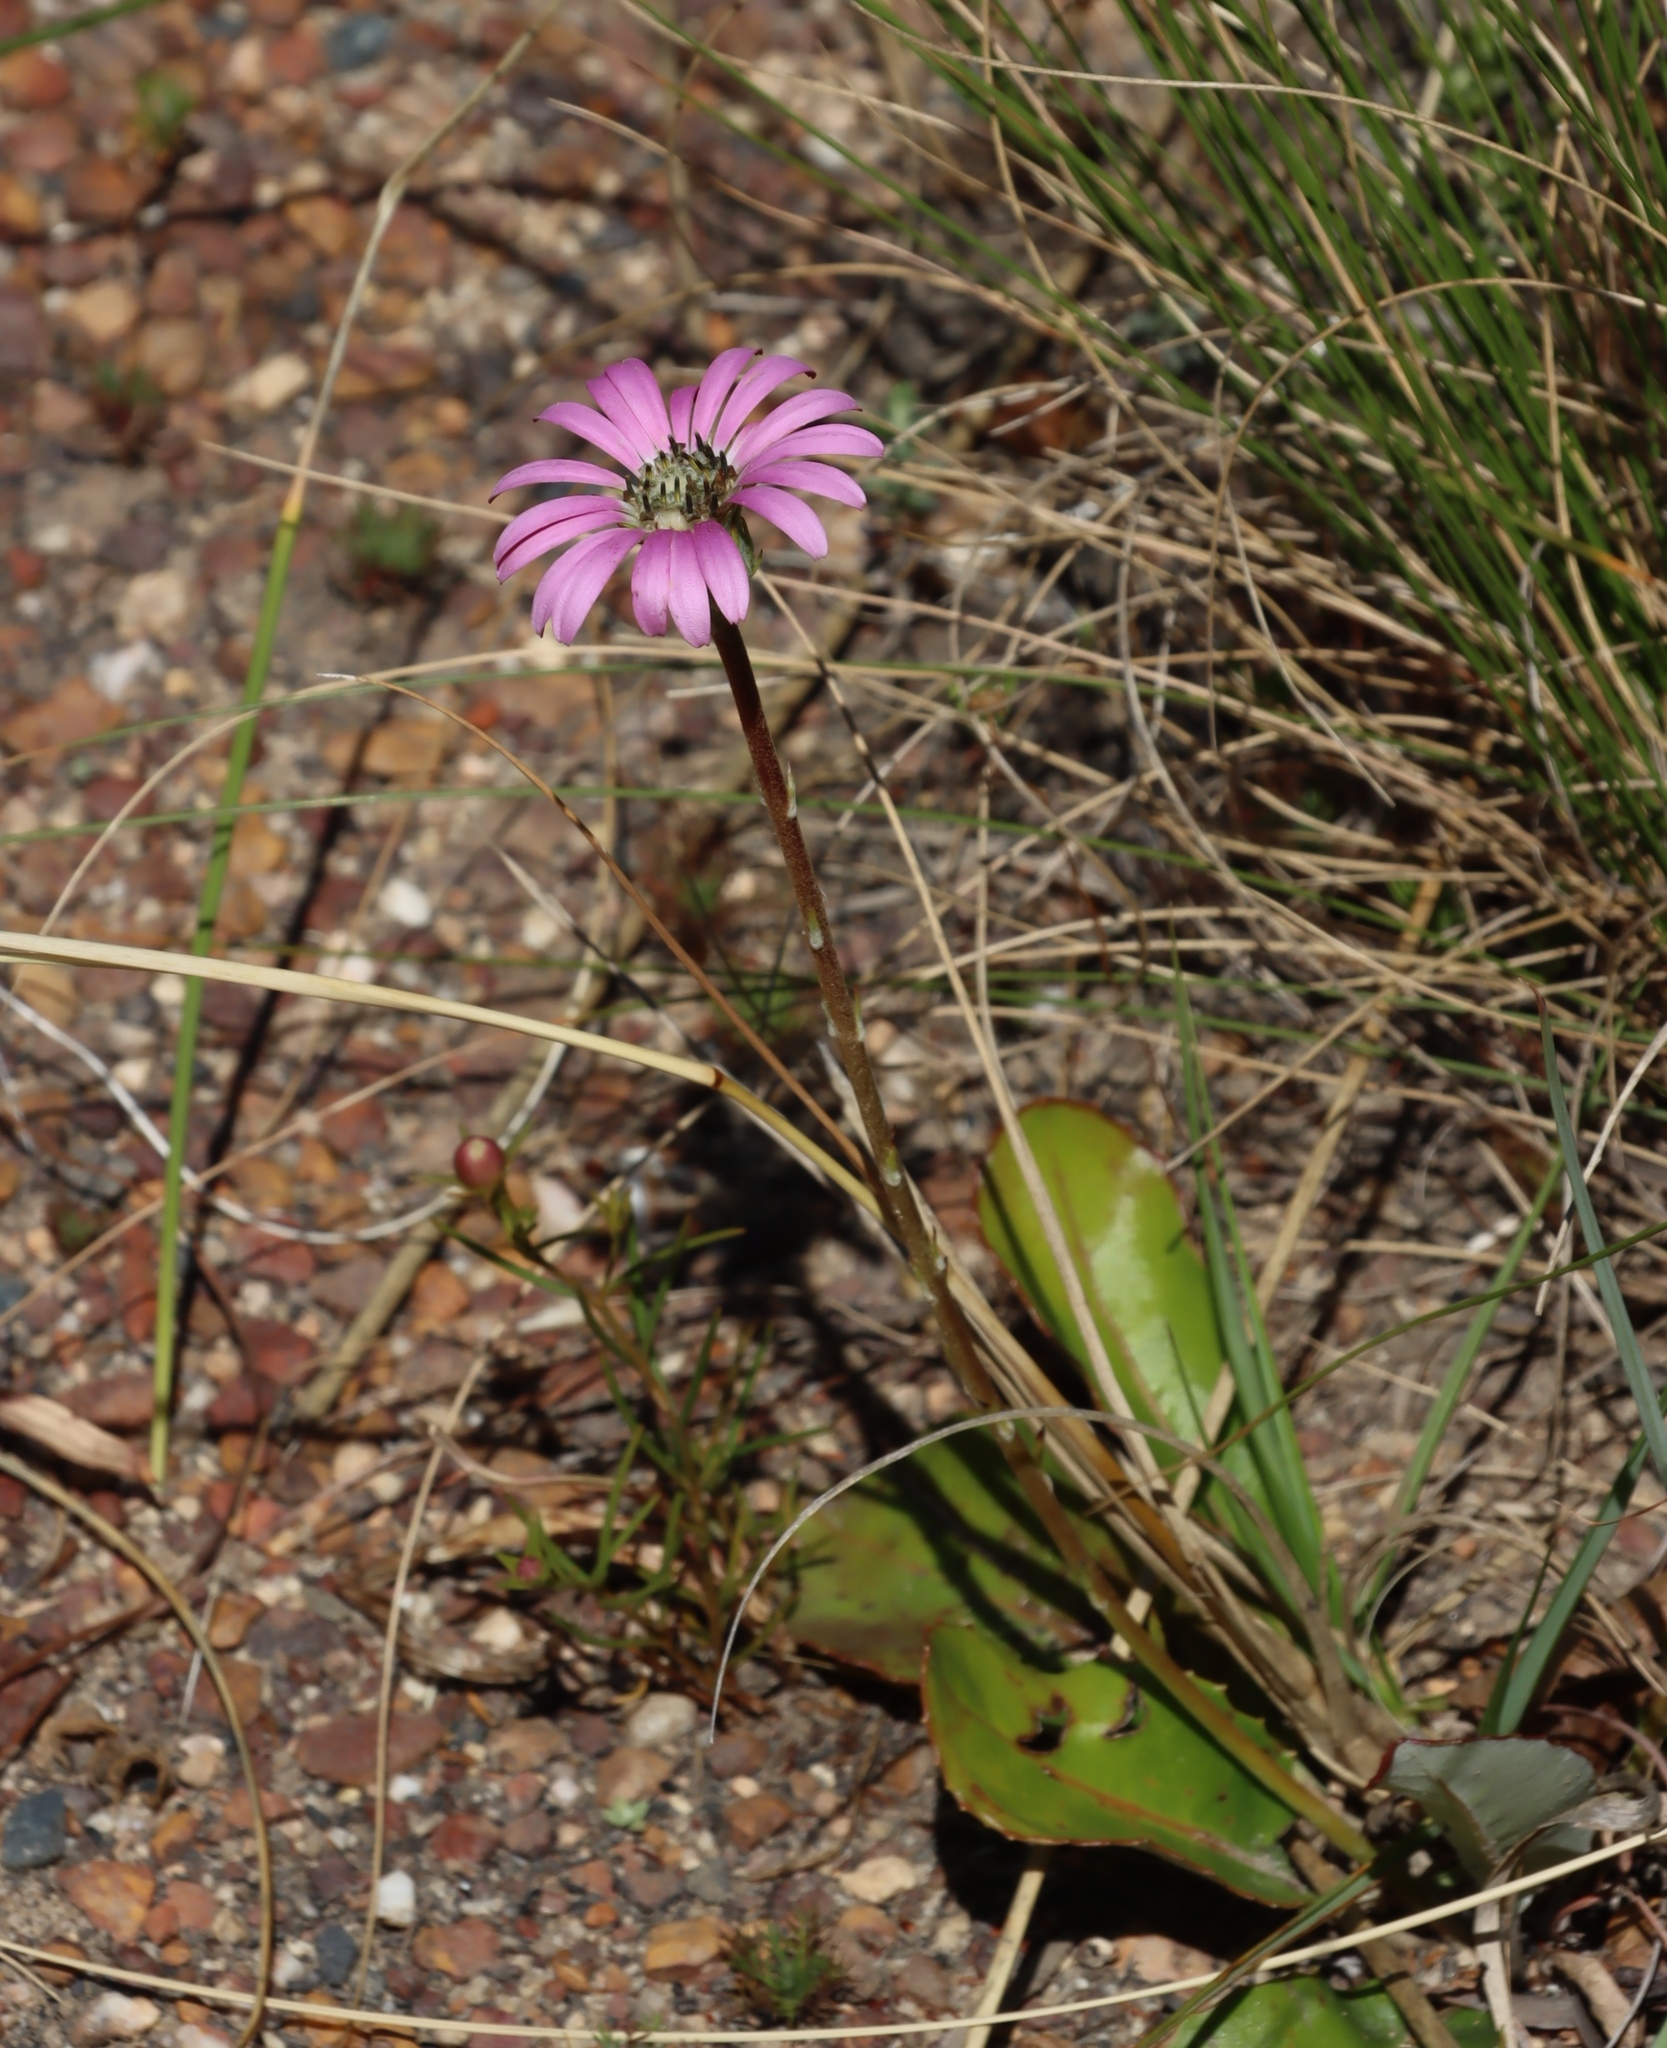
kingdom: Plantae
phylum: Tracheophyta
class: Magnoliopsida
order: Asterales
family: Asteraceae
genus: Gerbera
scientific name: Gerbera crocea
